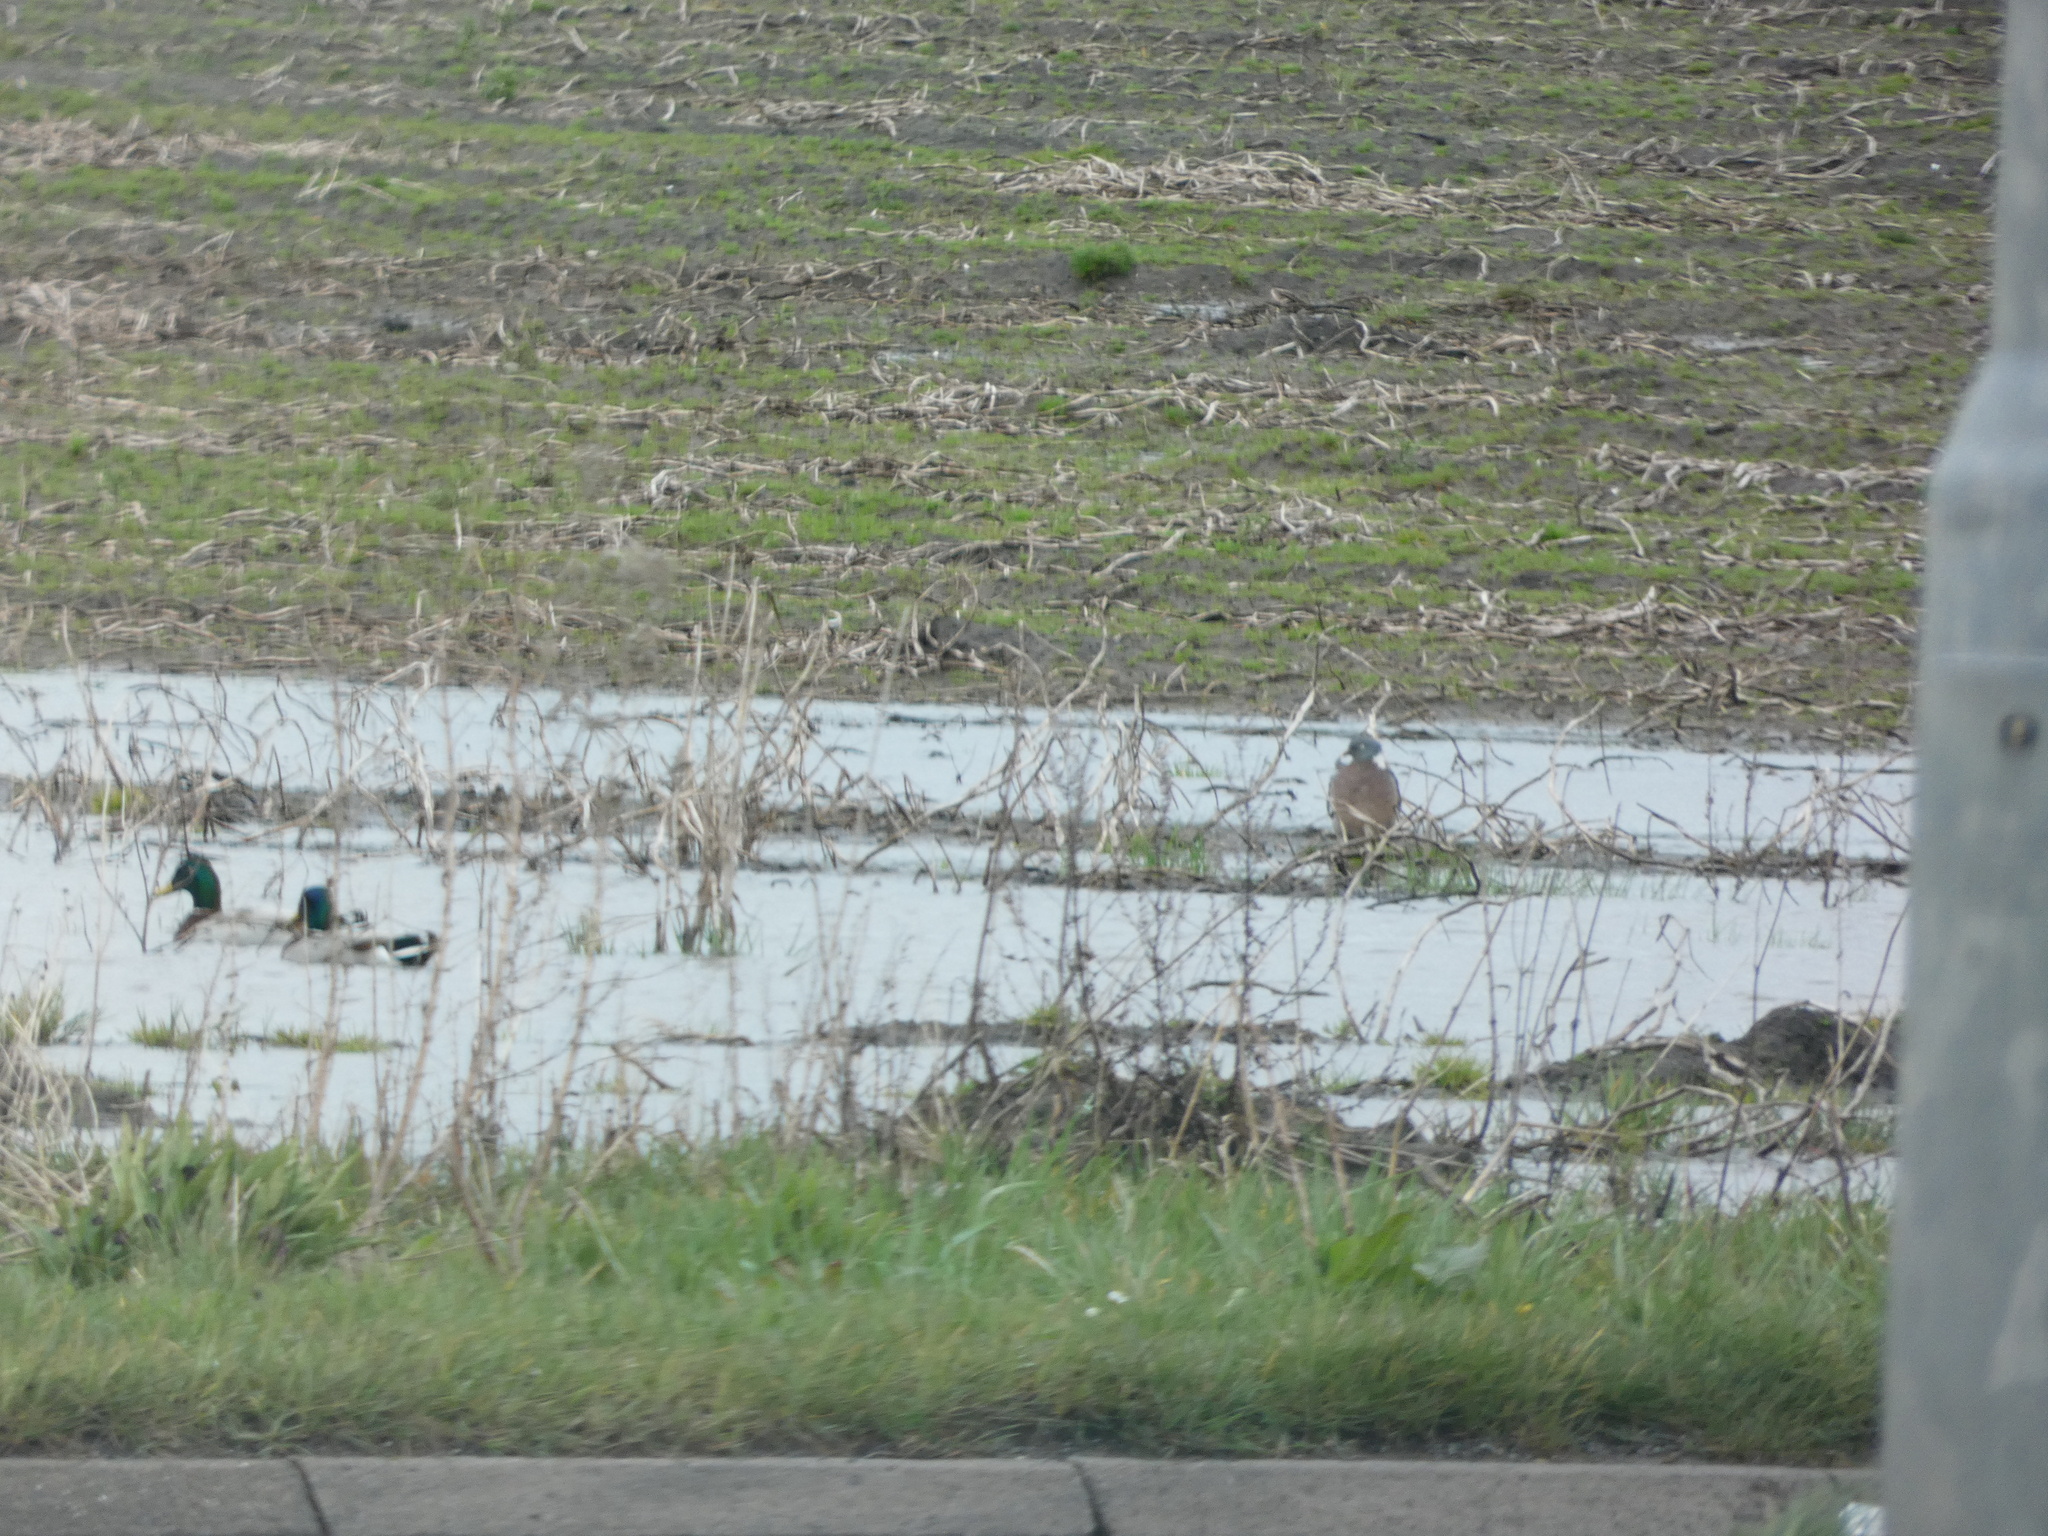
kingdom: Animalia
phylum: Chordata
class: Aves
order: Columbiformes
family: Columbidae
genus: Columba
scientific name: Columba palumbus
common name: Common wood pigeon
